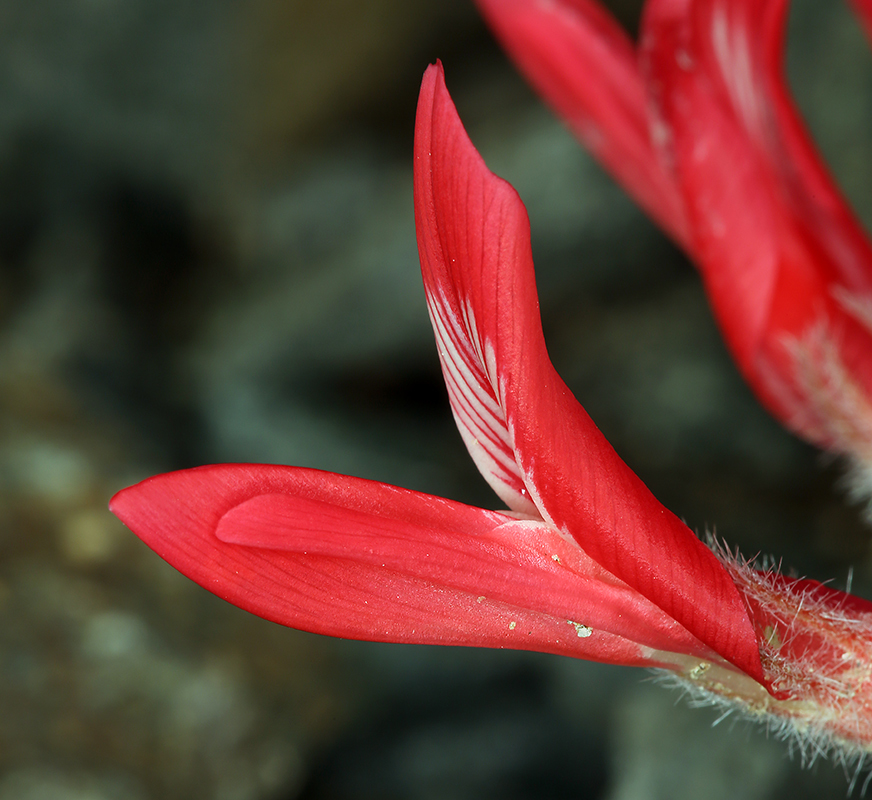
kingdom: Plantae
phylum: Tracheophyta
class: Magnoliopsida
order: Fabales
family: Fabaceae
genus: Astragalus
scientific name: Astragalus coccineus
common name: Scarlet milk-vetch
